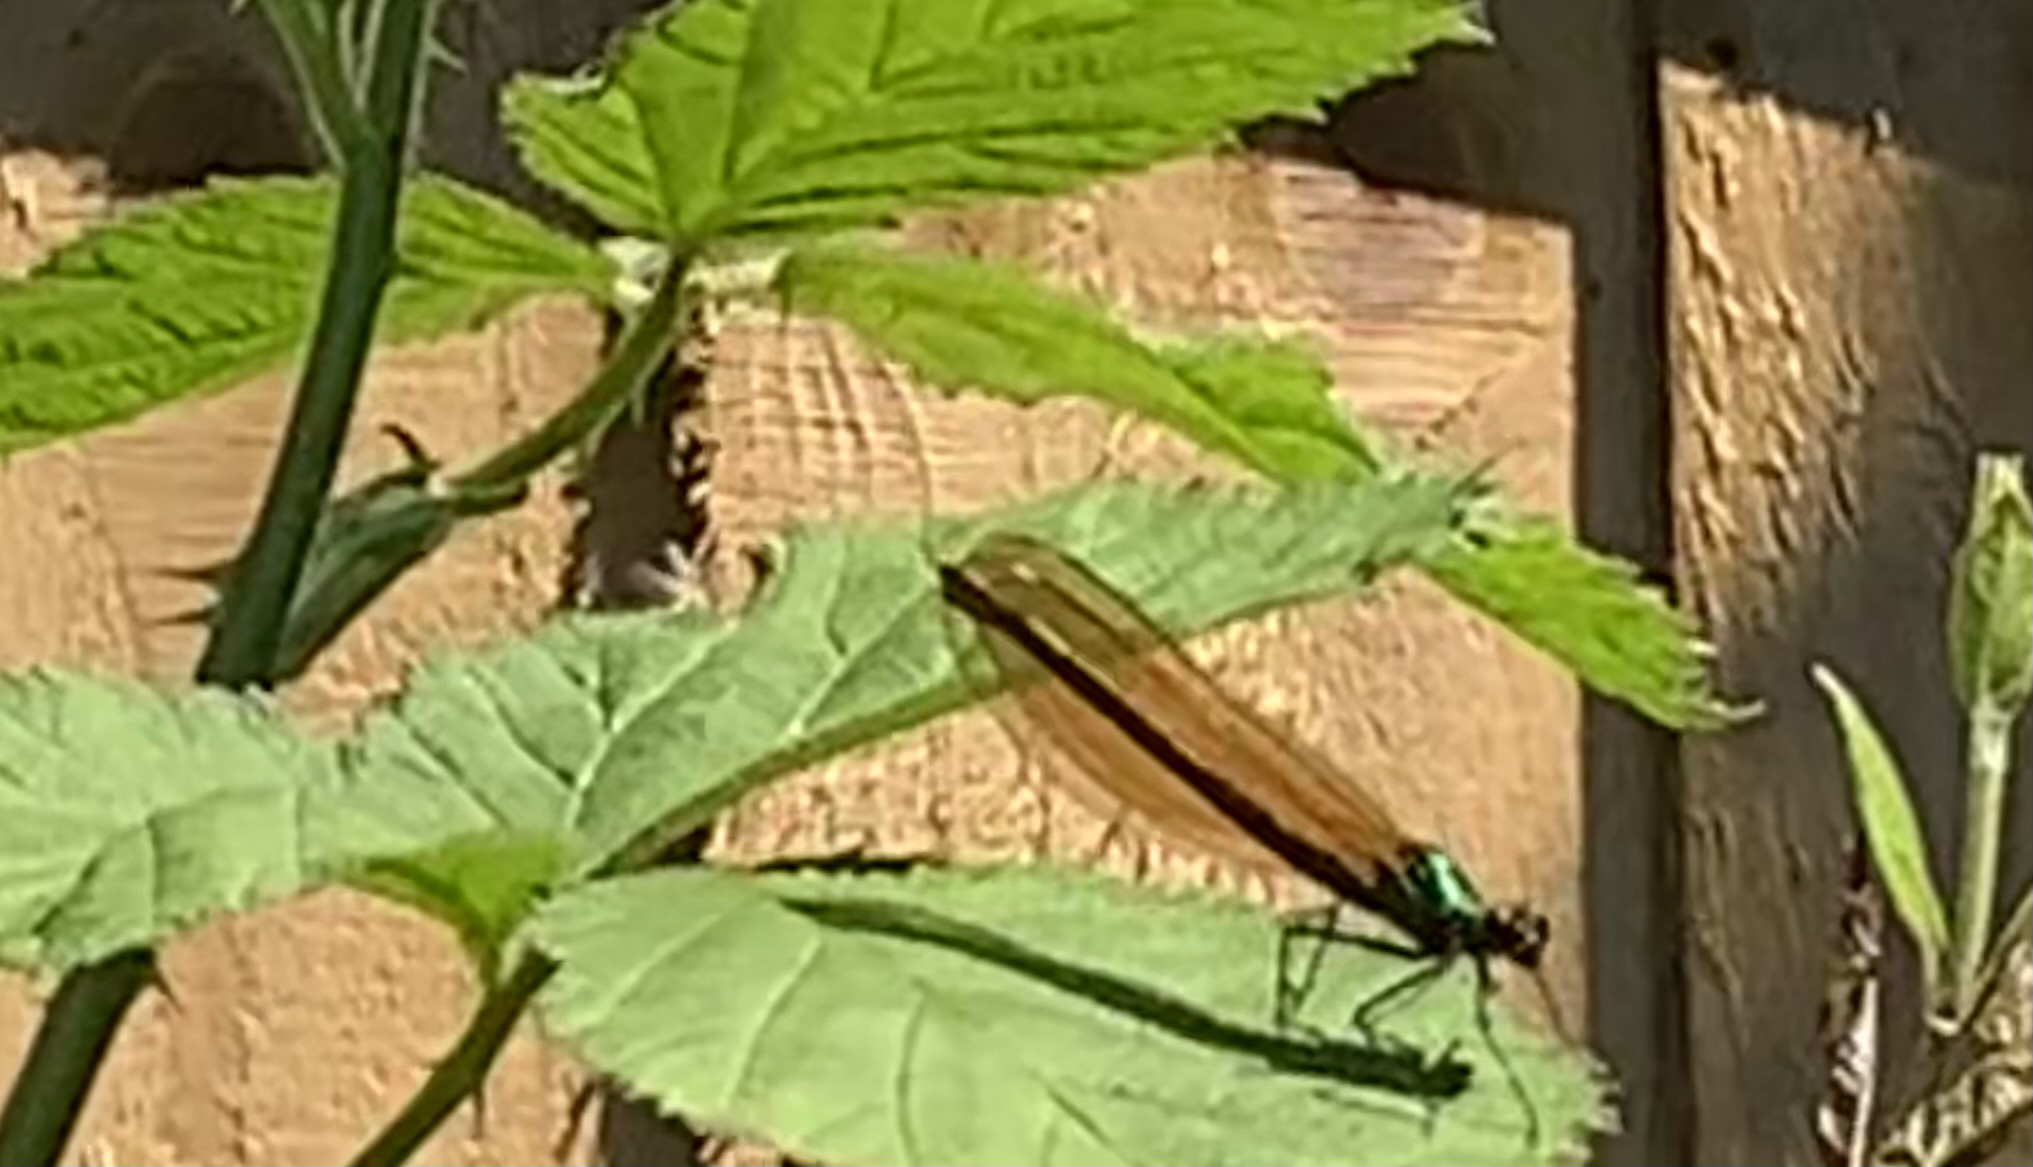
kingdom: Animalia
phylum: Arthropoda
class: Insecta
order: Odonata
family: Calopterygidae
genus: Calopteryx
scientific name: Calopteryx virgo
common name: Beautiful demoiselle
